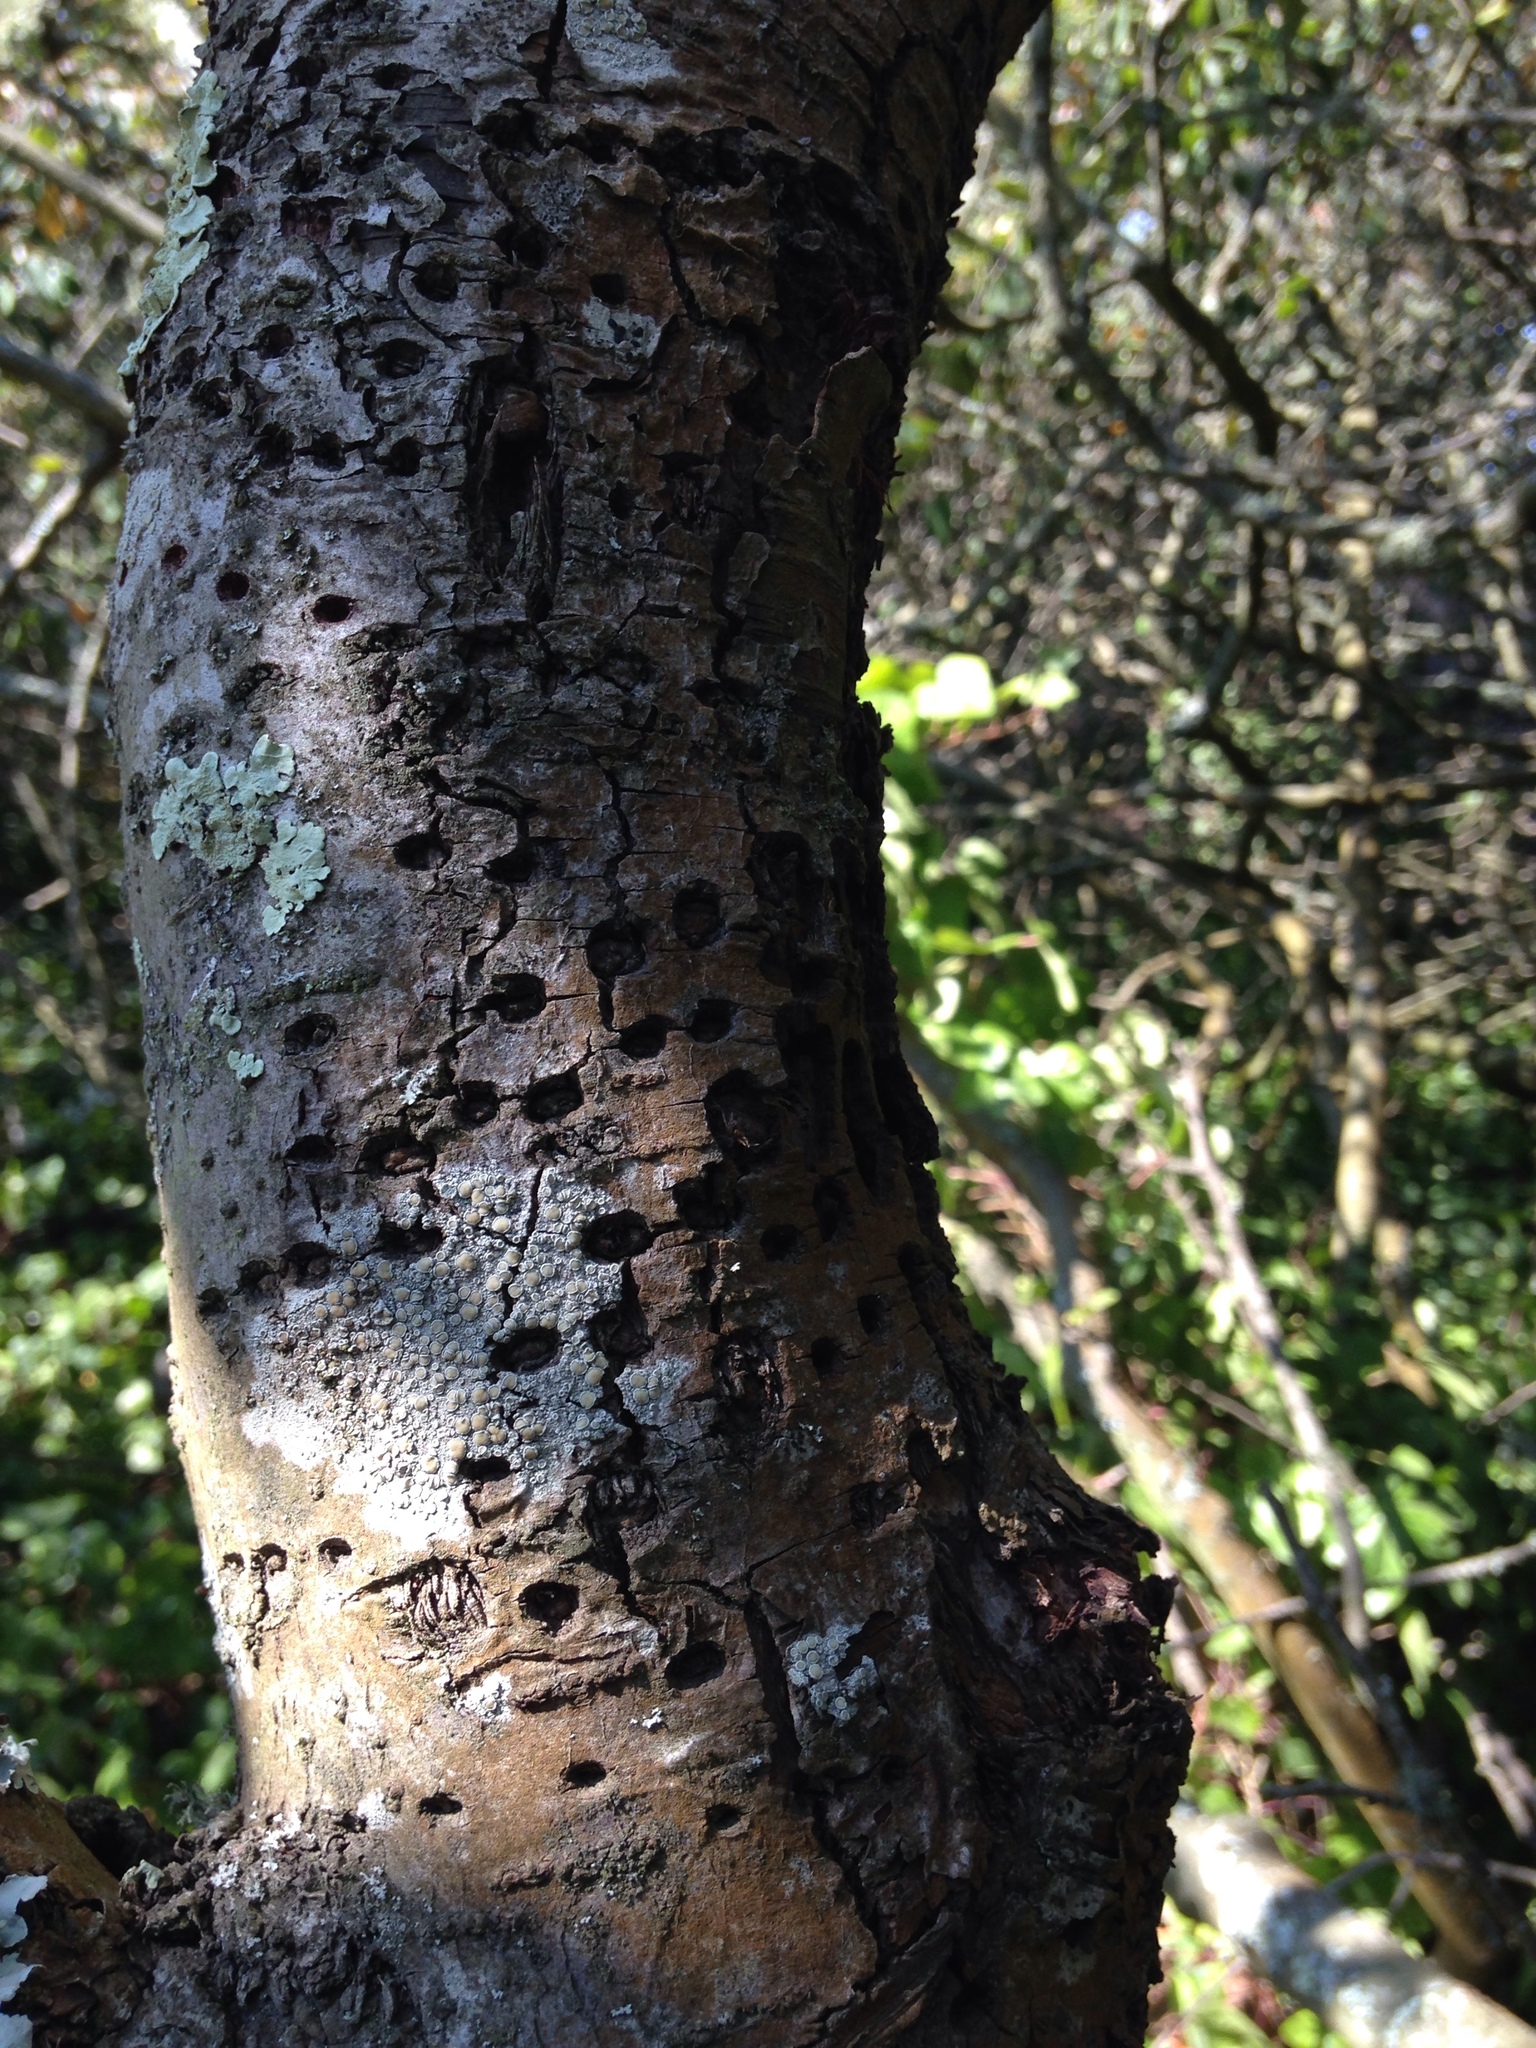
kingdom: Animalia
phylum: Chordata
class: Aves
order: Piciformes
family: Picidae
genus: Sphyrapicus
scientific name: Sphyrapicus
